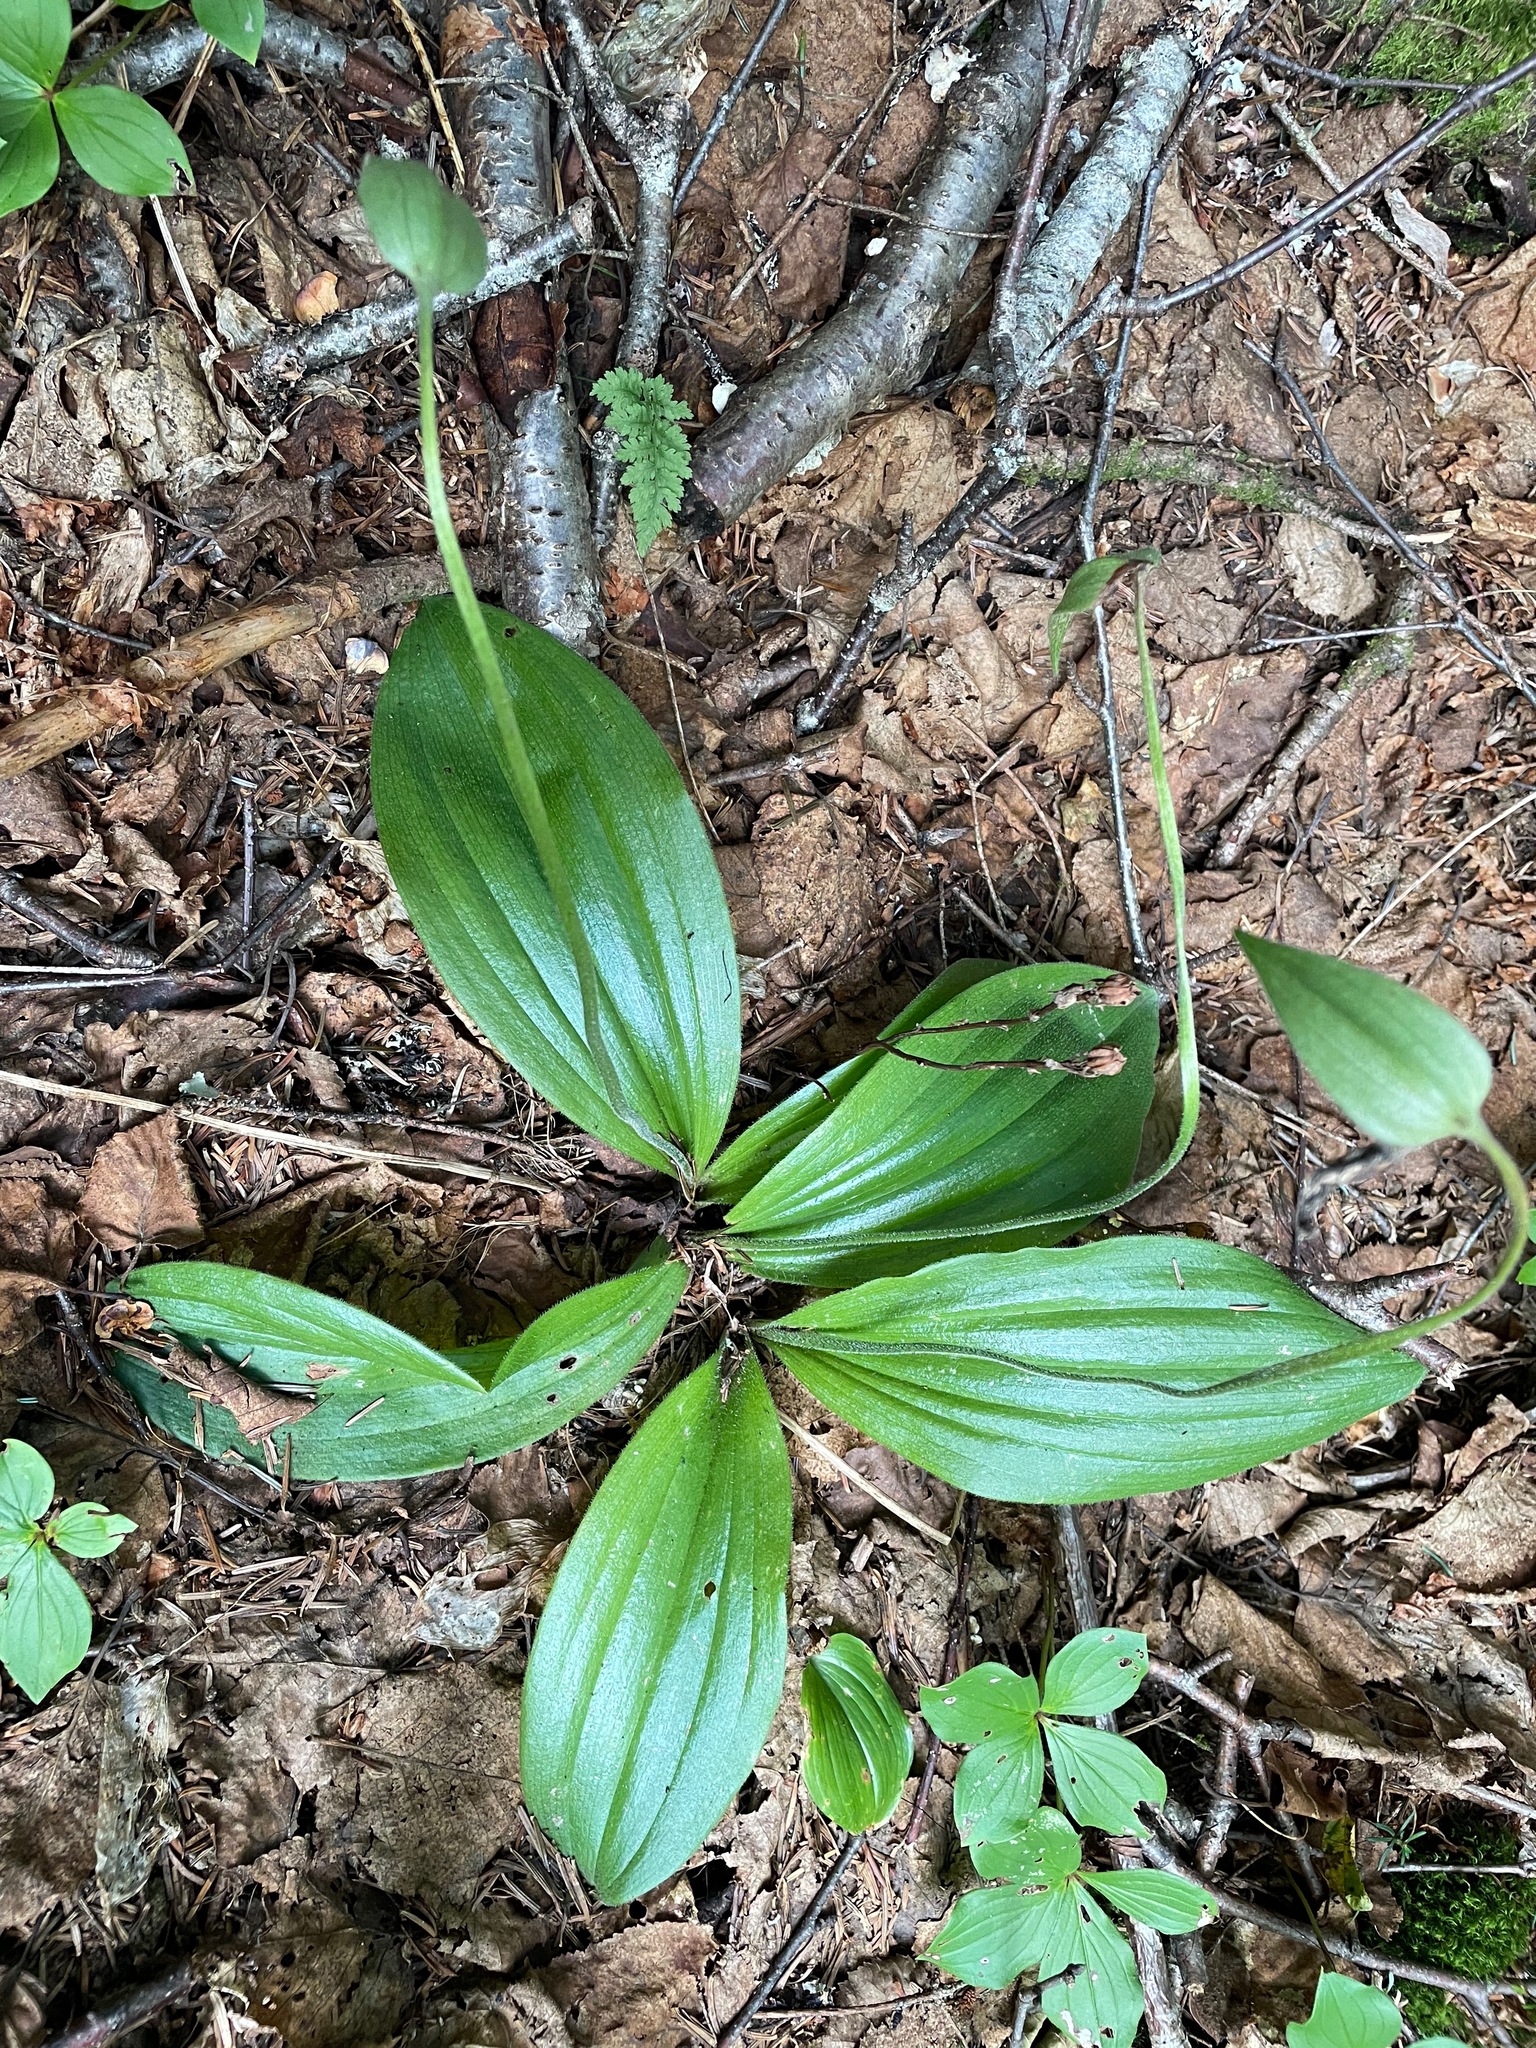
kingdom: Plantae
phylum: Tracheophyta
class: Liliopsida
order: Asparagales
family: Orchidaceae
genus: Cypripedium
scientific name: Cypripedium acaule
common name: Pink lady's-slipper
